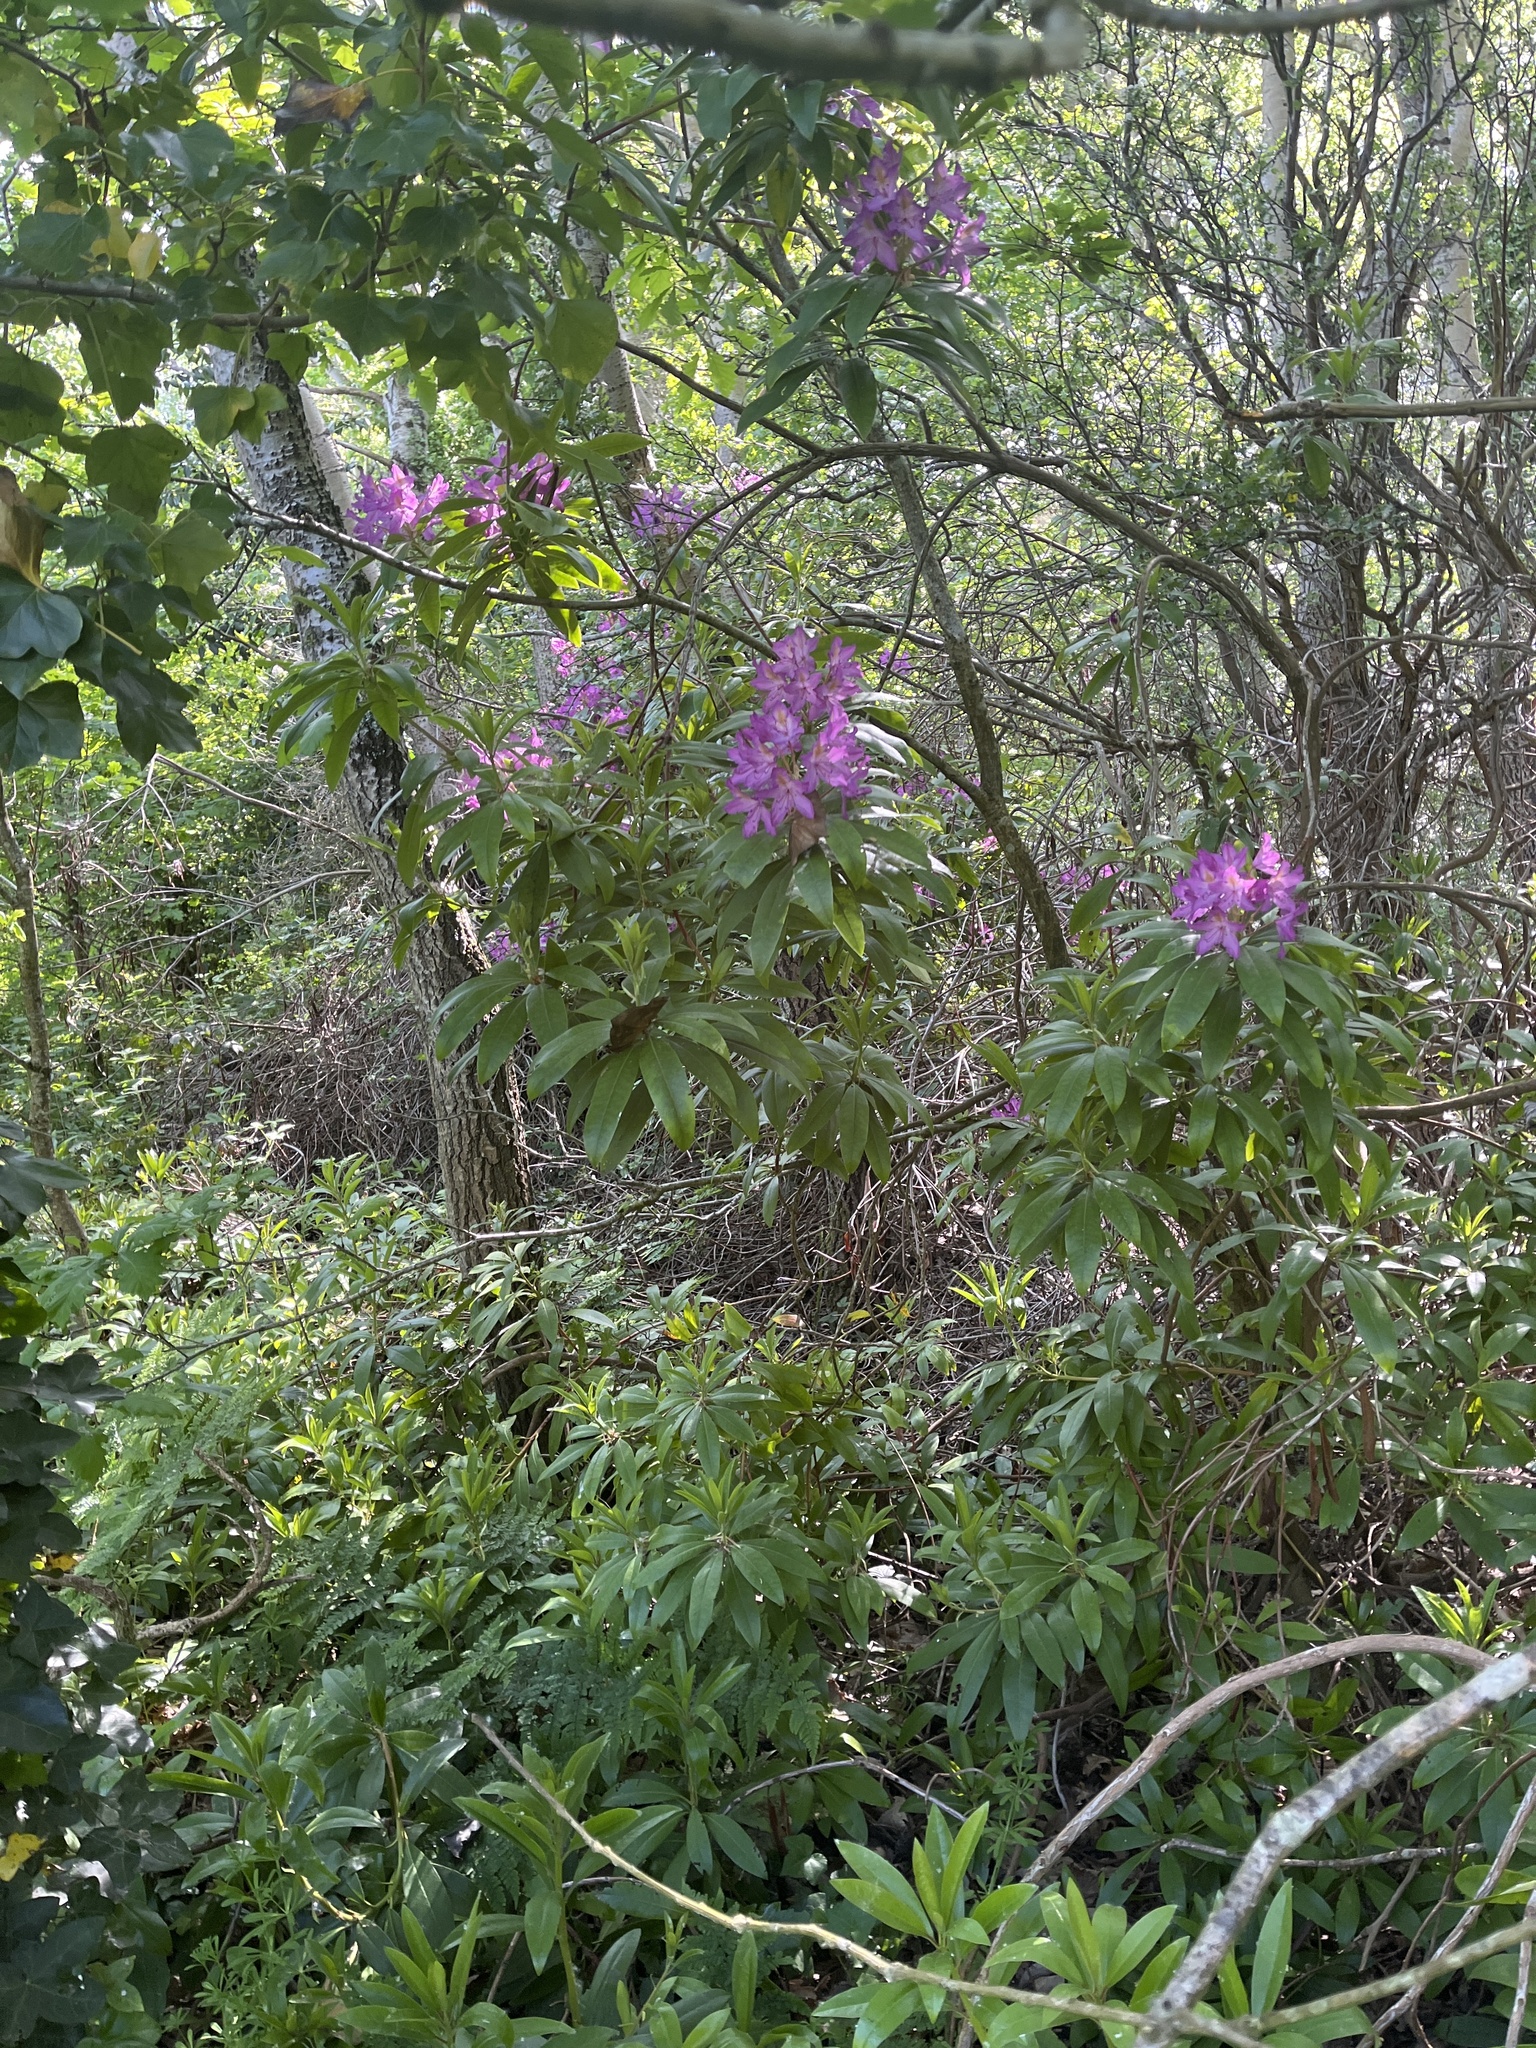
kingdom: Plantae
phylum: Tracheophyta
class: Magnoliopsida
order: Ericales
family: Ericaceae
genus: Rhododendron
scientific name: Rhododendron ponticum
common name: Rhododendron
